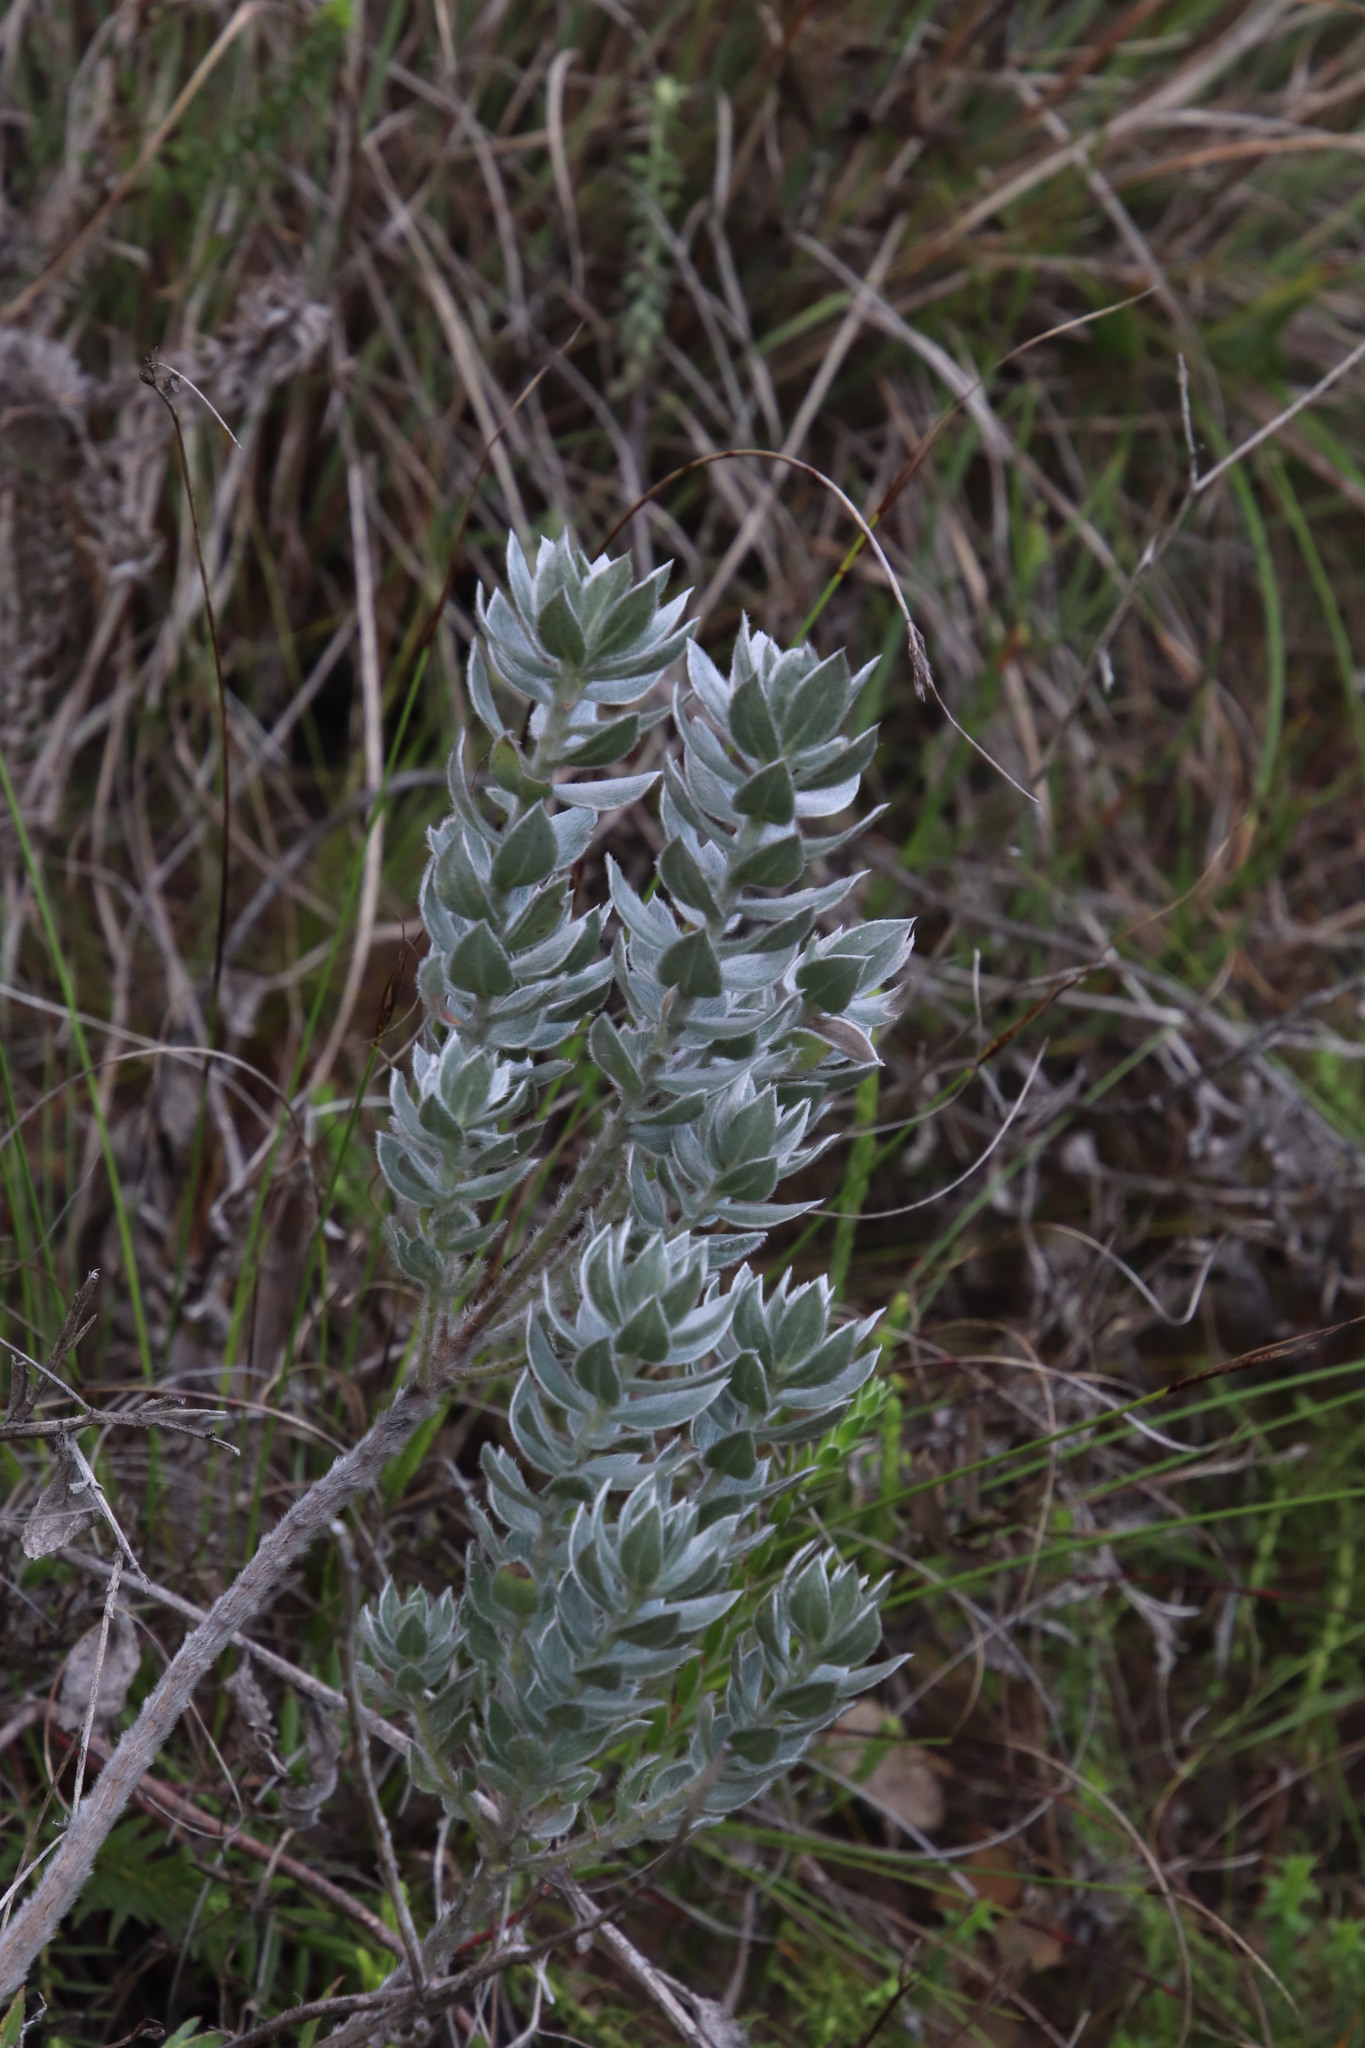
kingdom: Plantae
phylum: Tracheophyta
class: Magnoliopsida
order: Fabales
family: Fabaceae
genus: Xiphotheca
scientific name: Xiphotheca fruticosa
